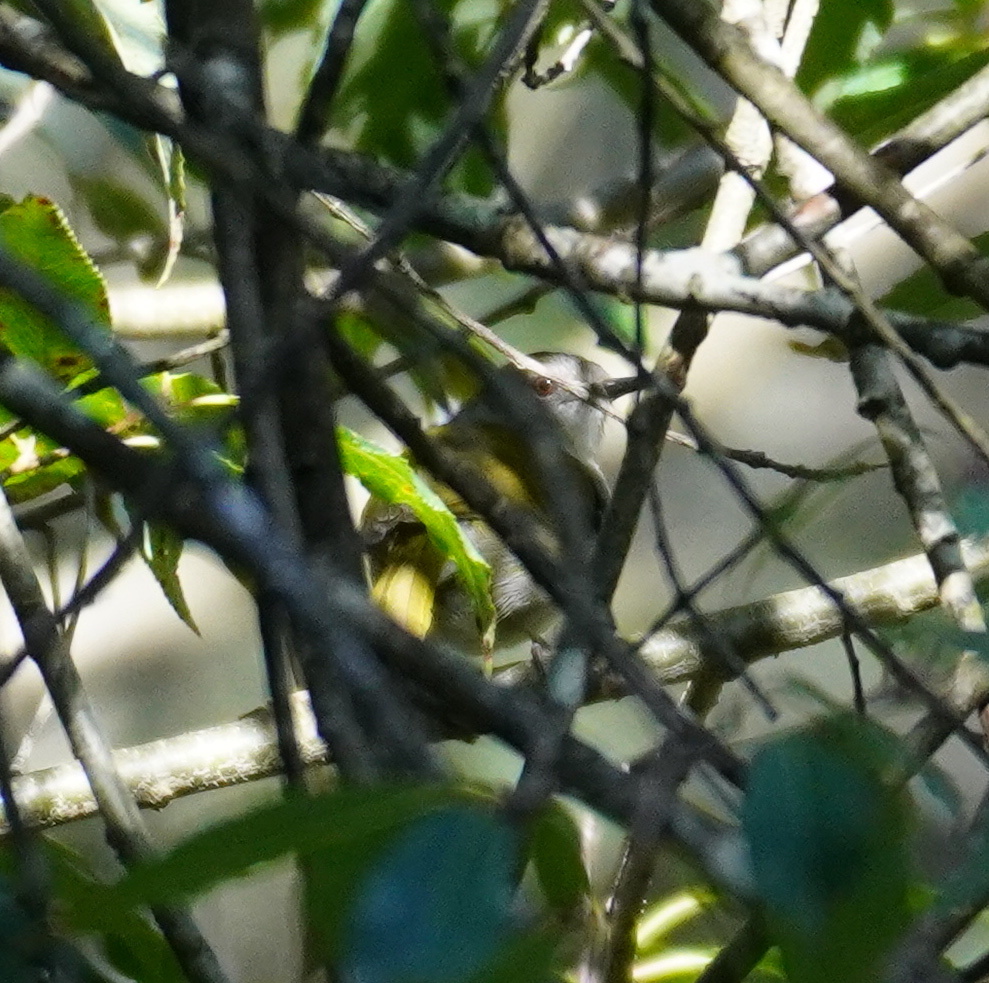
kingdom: Animalia
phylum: Chordata
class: Aves
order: Passeriformes
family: Cisticolidae
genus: Camaroptera
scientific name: Camaroptera brachyura
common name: Green-backed camaroptera
